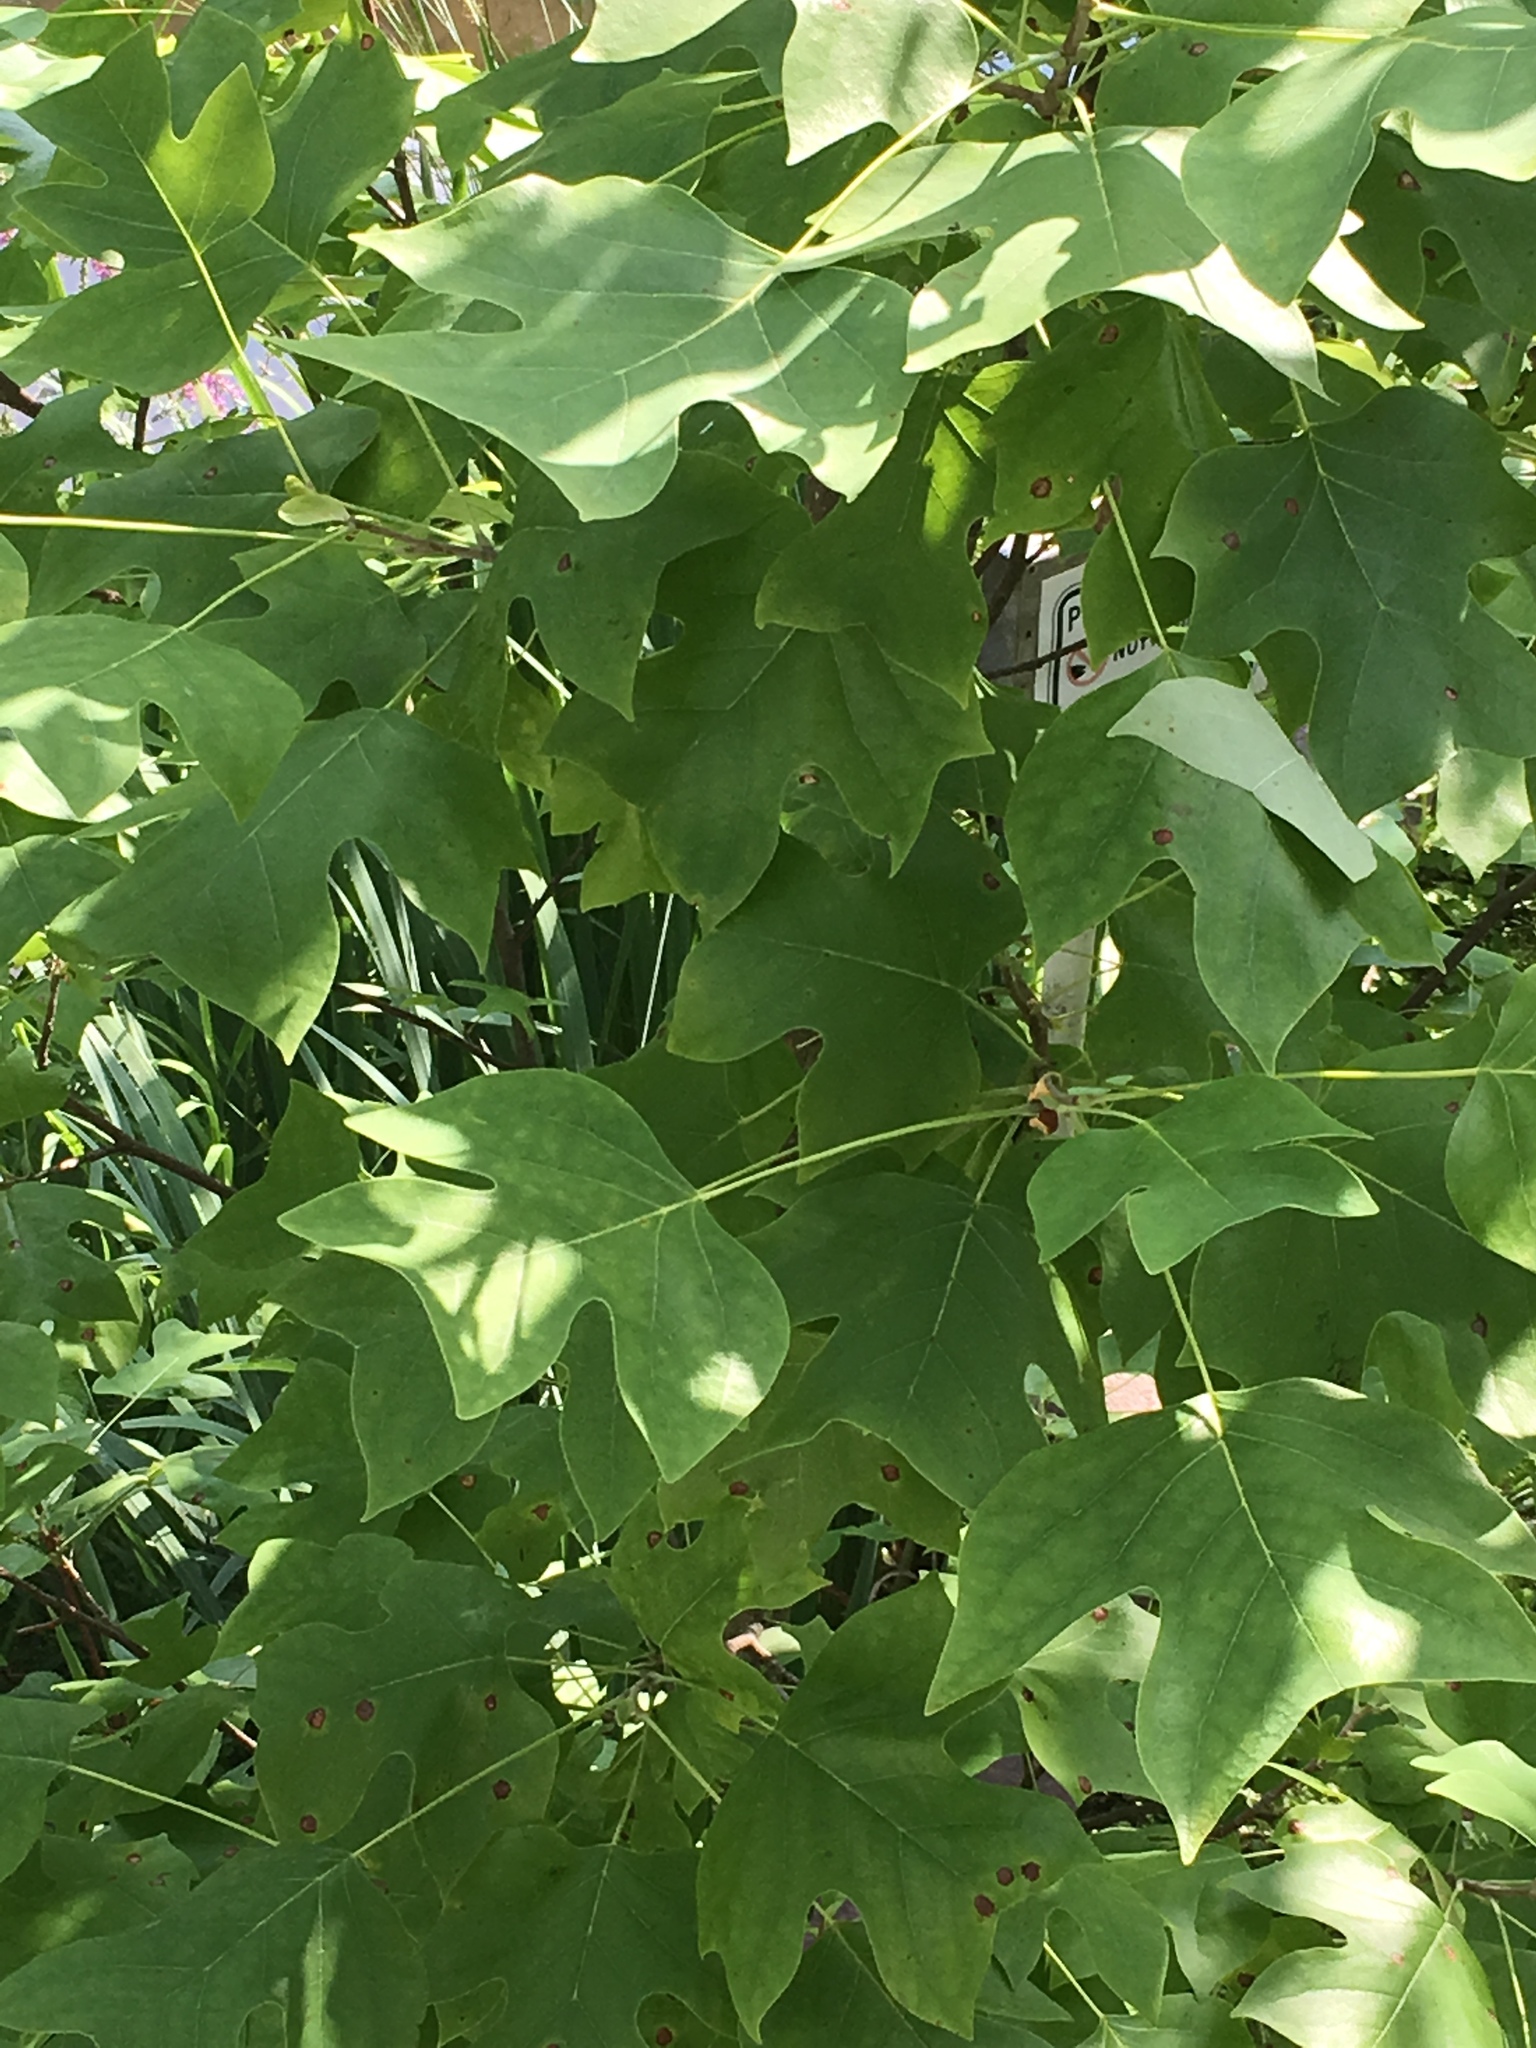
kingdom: Plantae
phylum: Tracheophyta
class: Magnoliopsida
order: Magnoliales
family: Magnoliaceae
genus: Liriodendron
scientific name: Liriodendron tulipifera
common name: Tulip tree
